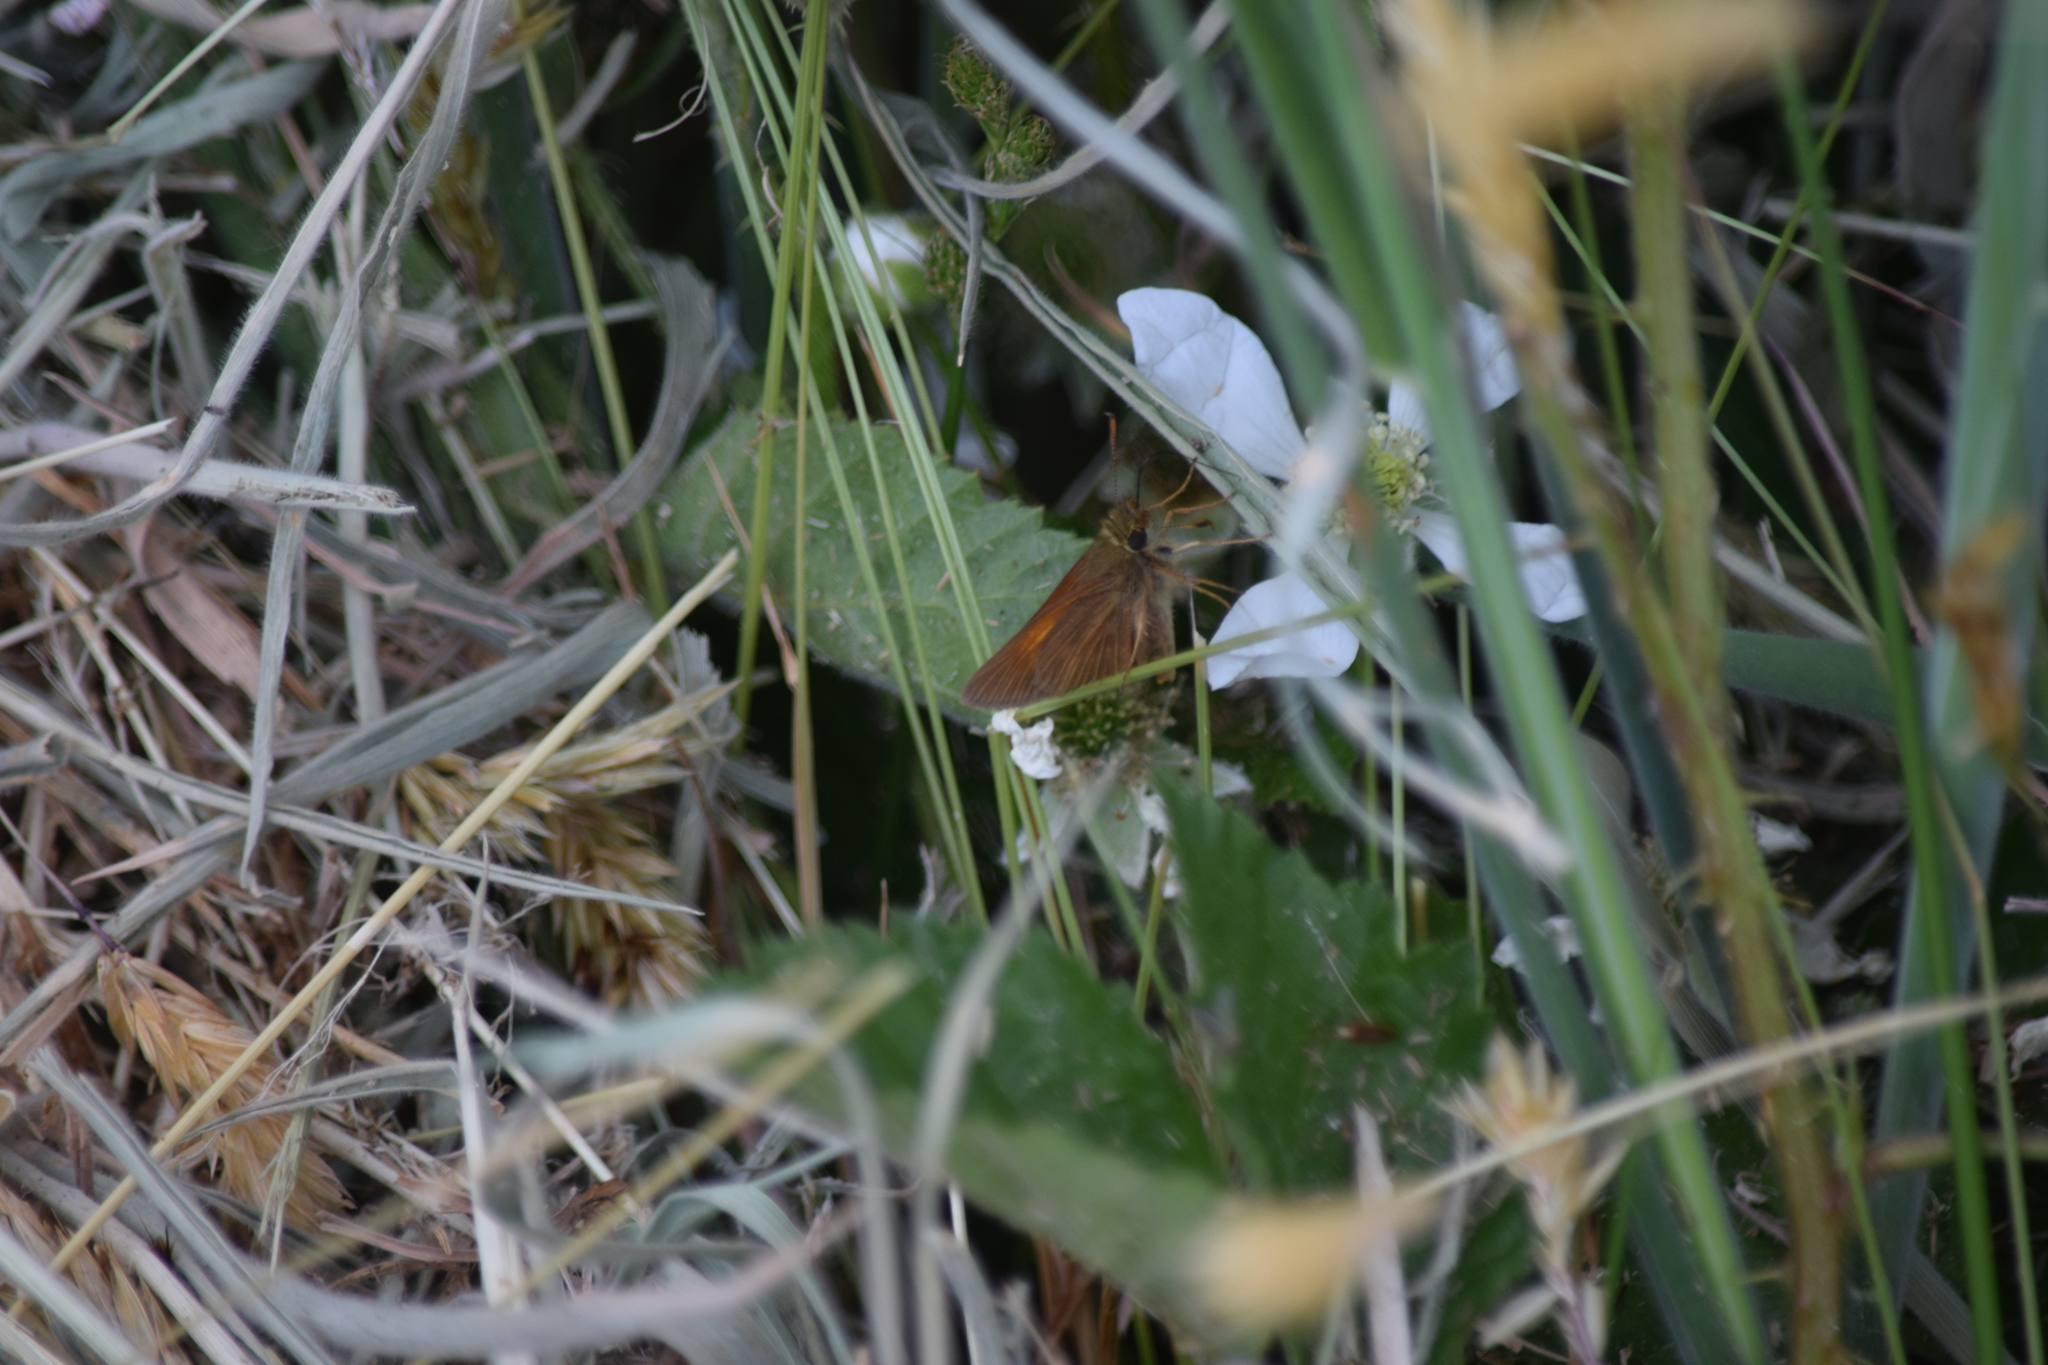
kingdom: Animalia
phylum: Arthropoda
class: Insecta
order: Lepidoptera
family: Hesperiidae
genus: Poanes
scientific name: Poanes aaroni
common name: Aaron's skipper
